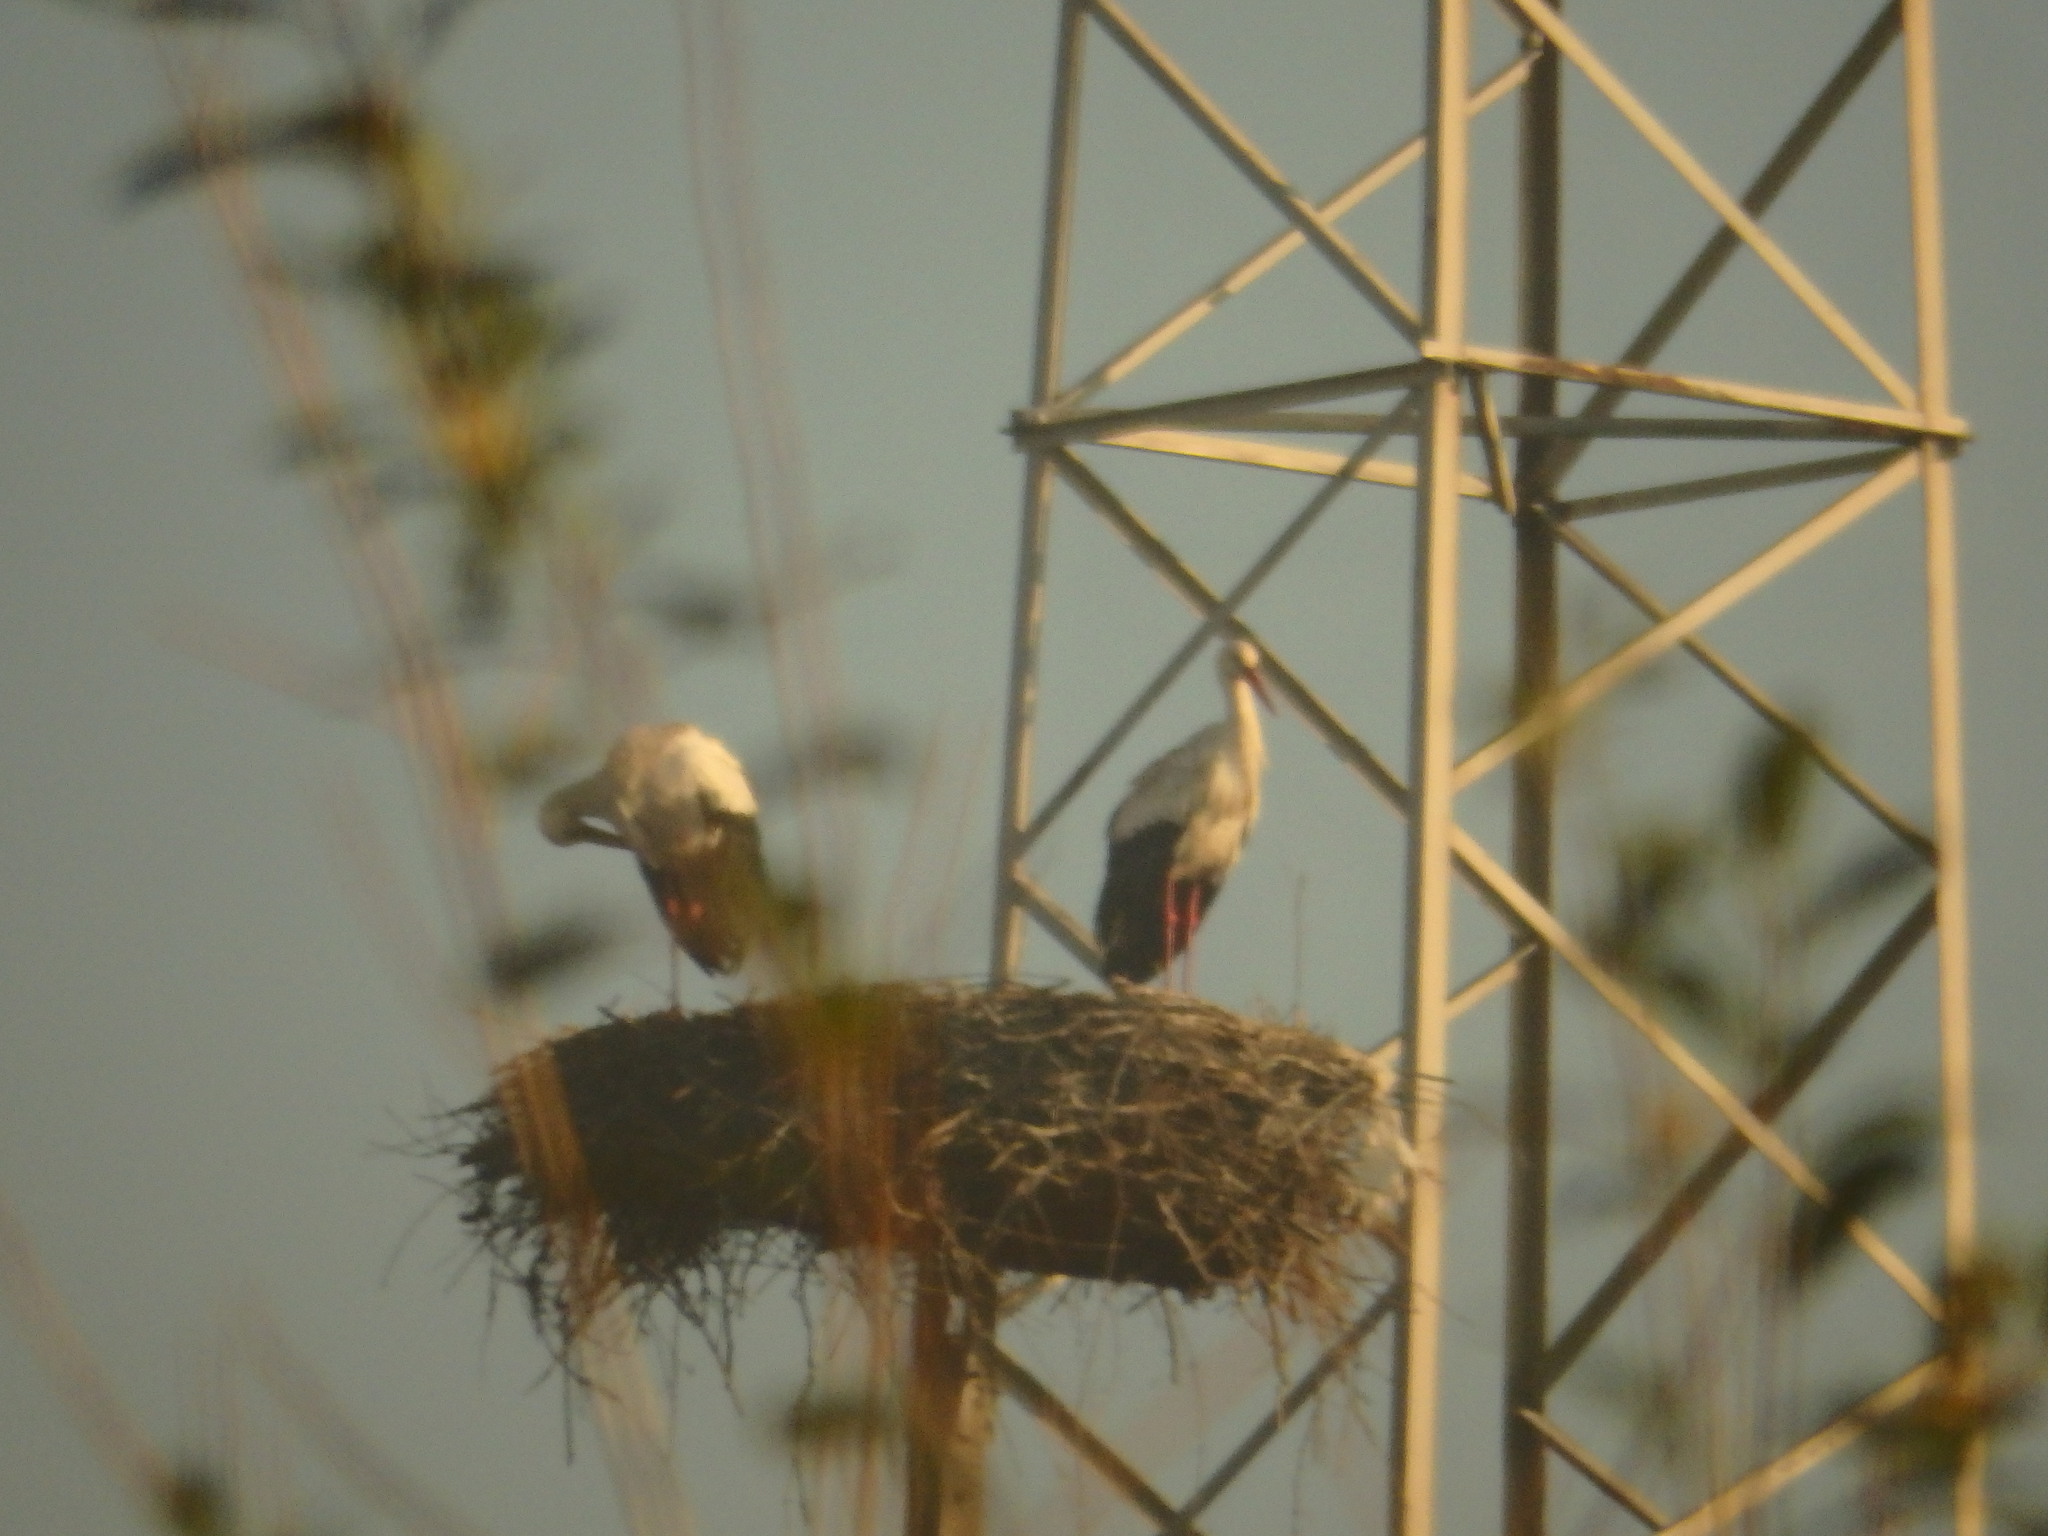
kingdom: Animalia
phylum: Chordata
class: Aves
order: Ciconiiformes
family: Ciconiidae
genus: Ciconia
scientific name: Ciconia ciconia
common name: White stork
